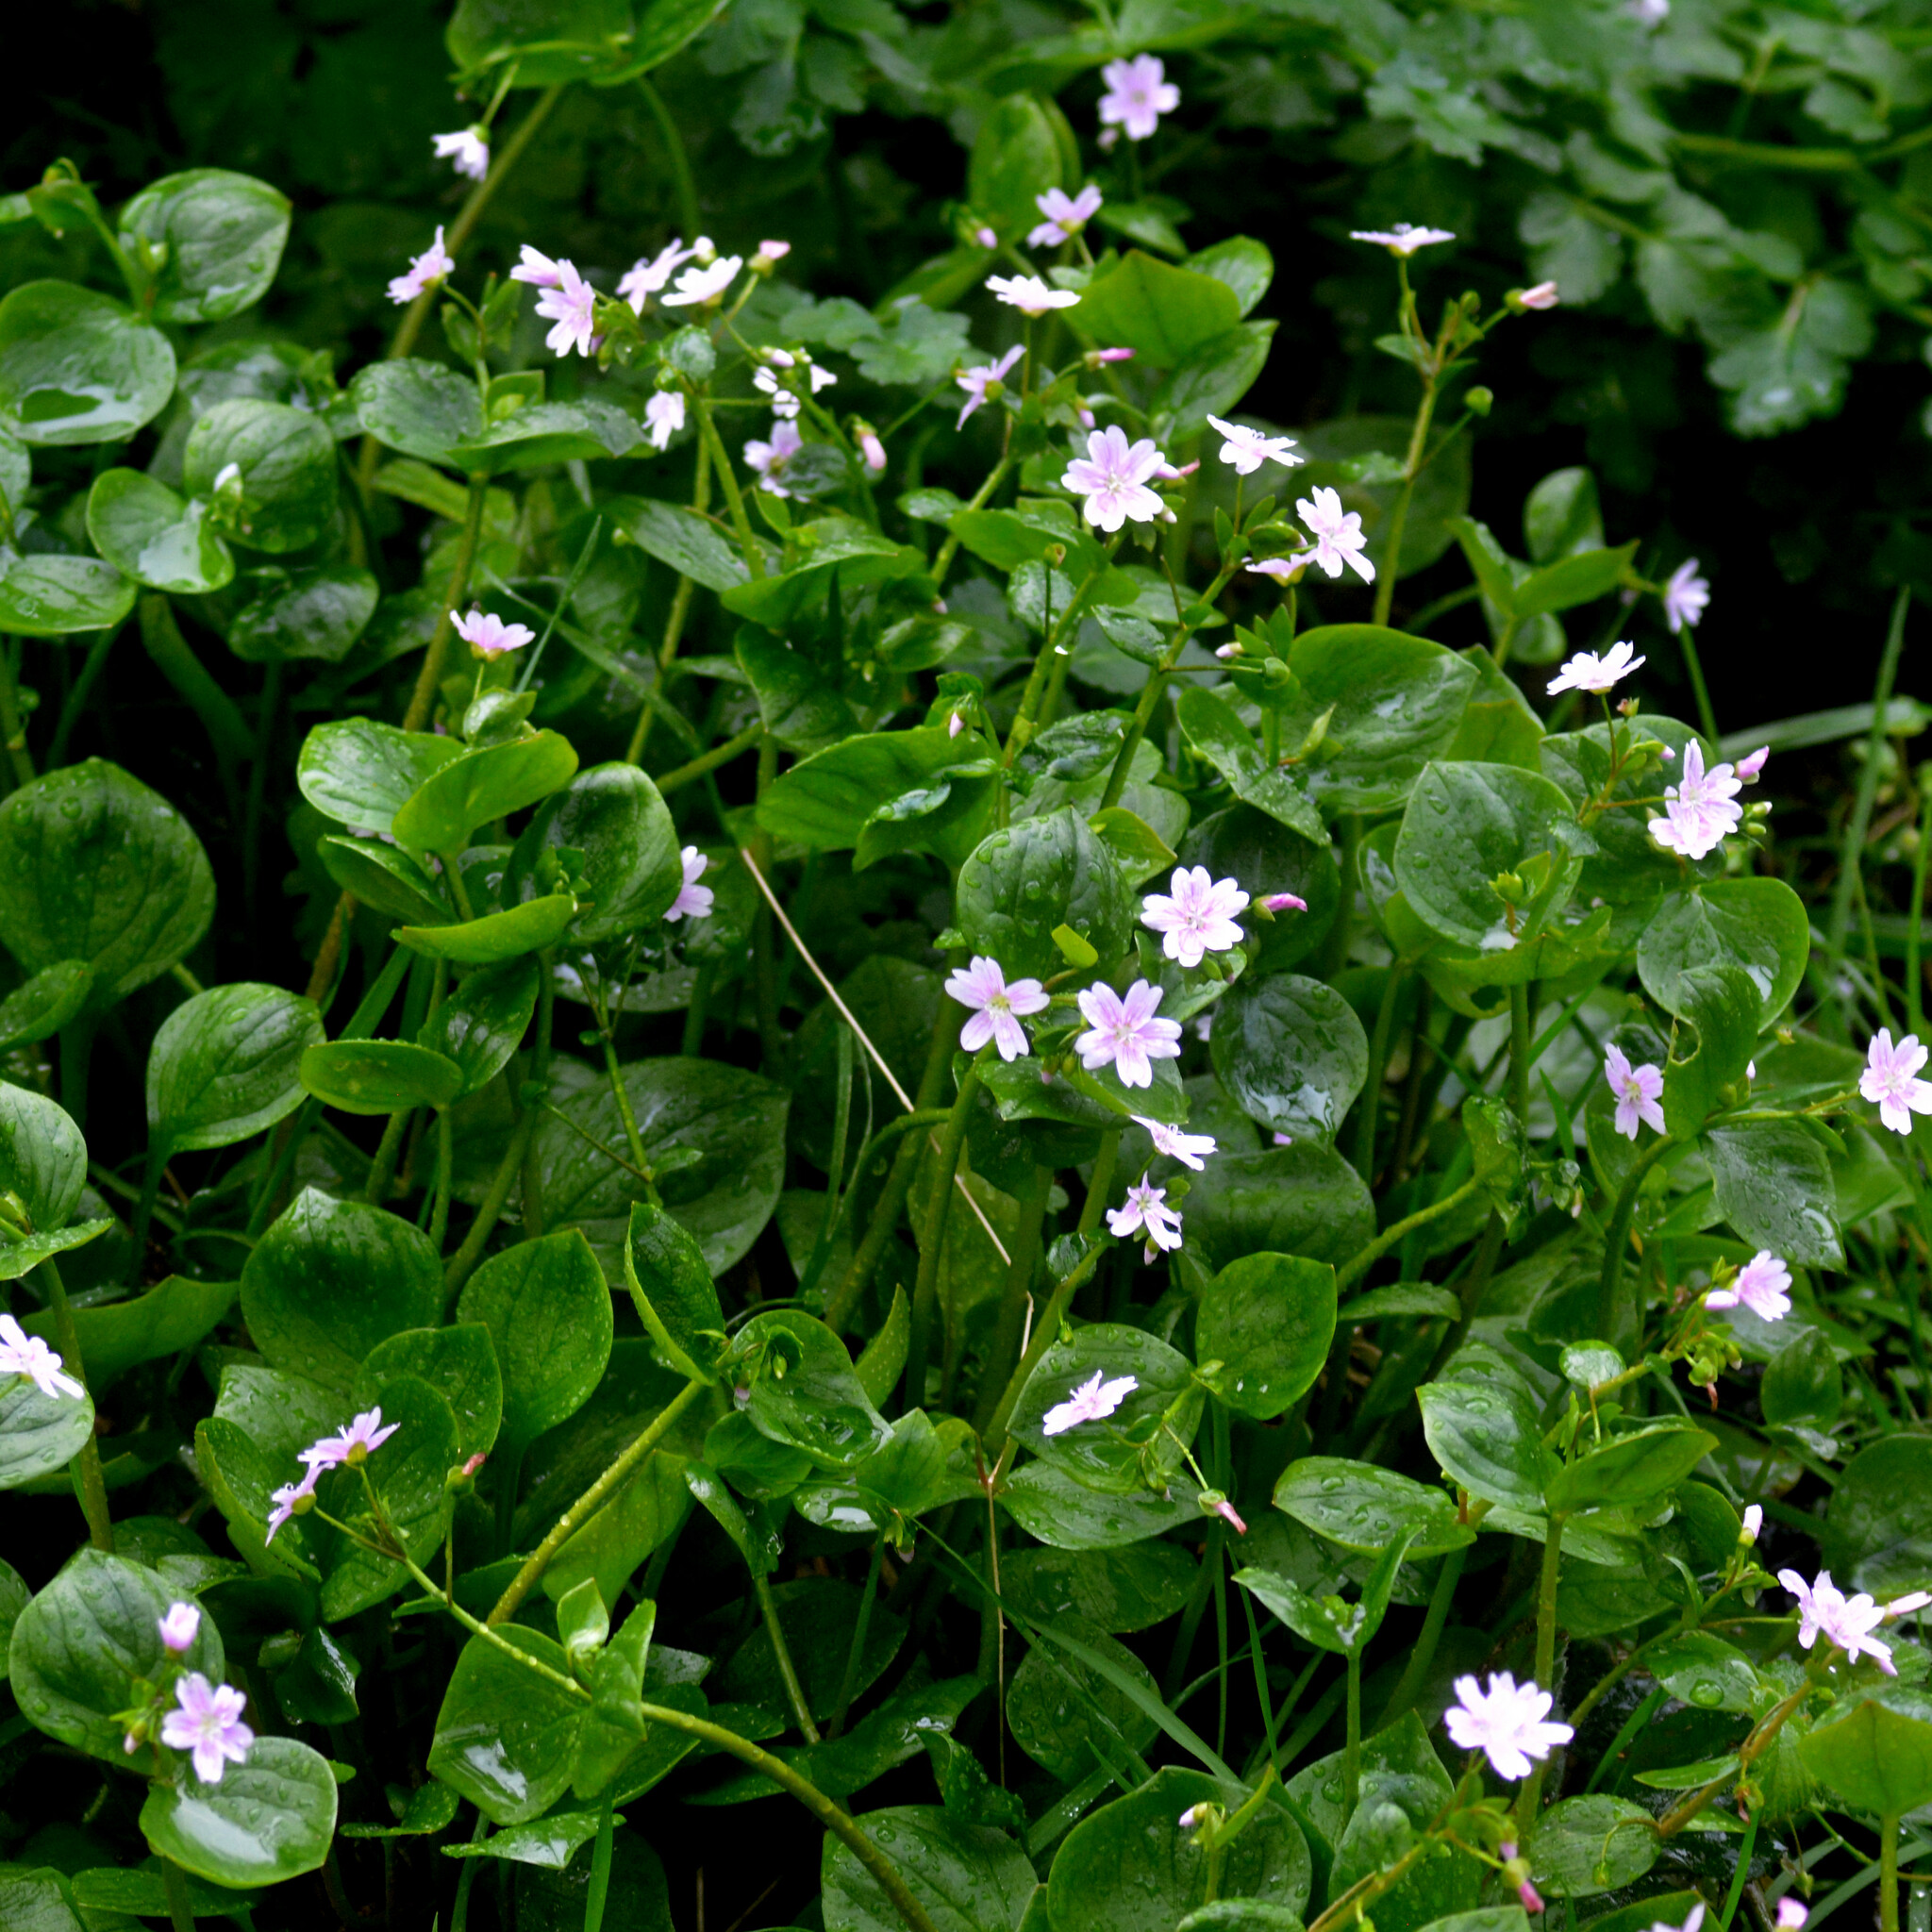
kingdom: Plantae
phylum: Tracheophyta
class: Magnoliopsida
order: Caryophyllales
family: Montiaceae
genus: Claytonia
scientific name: Claytonia sibirica
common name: Pink purslane
